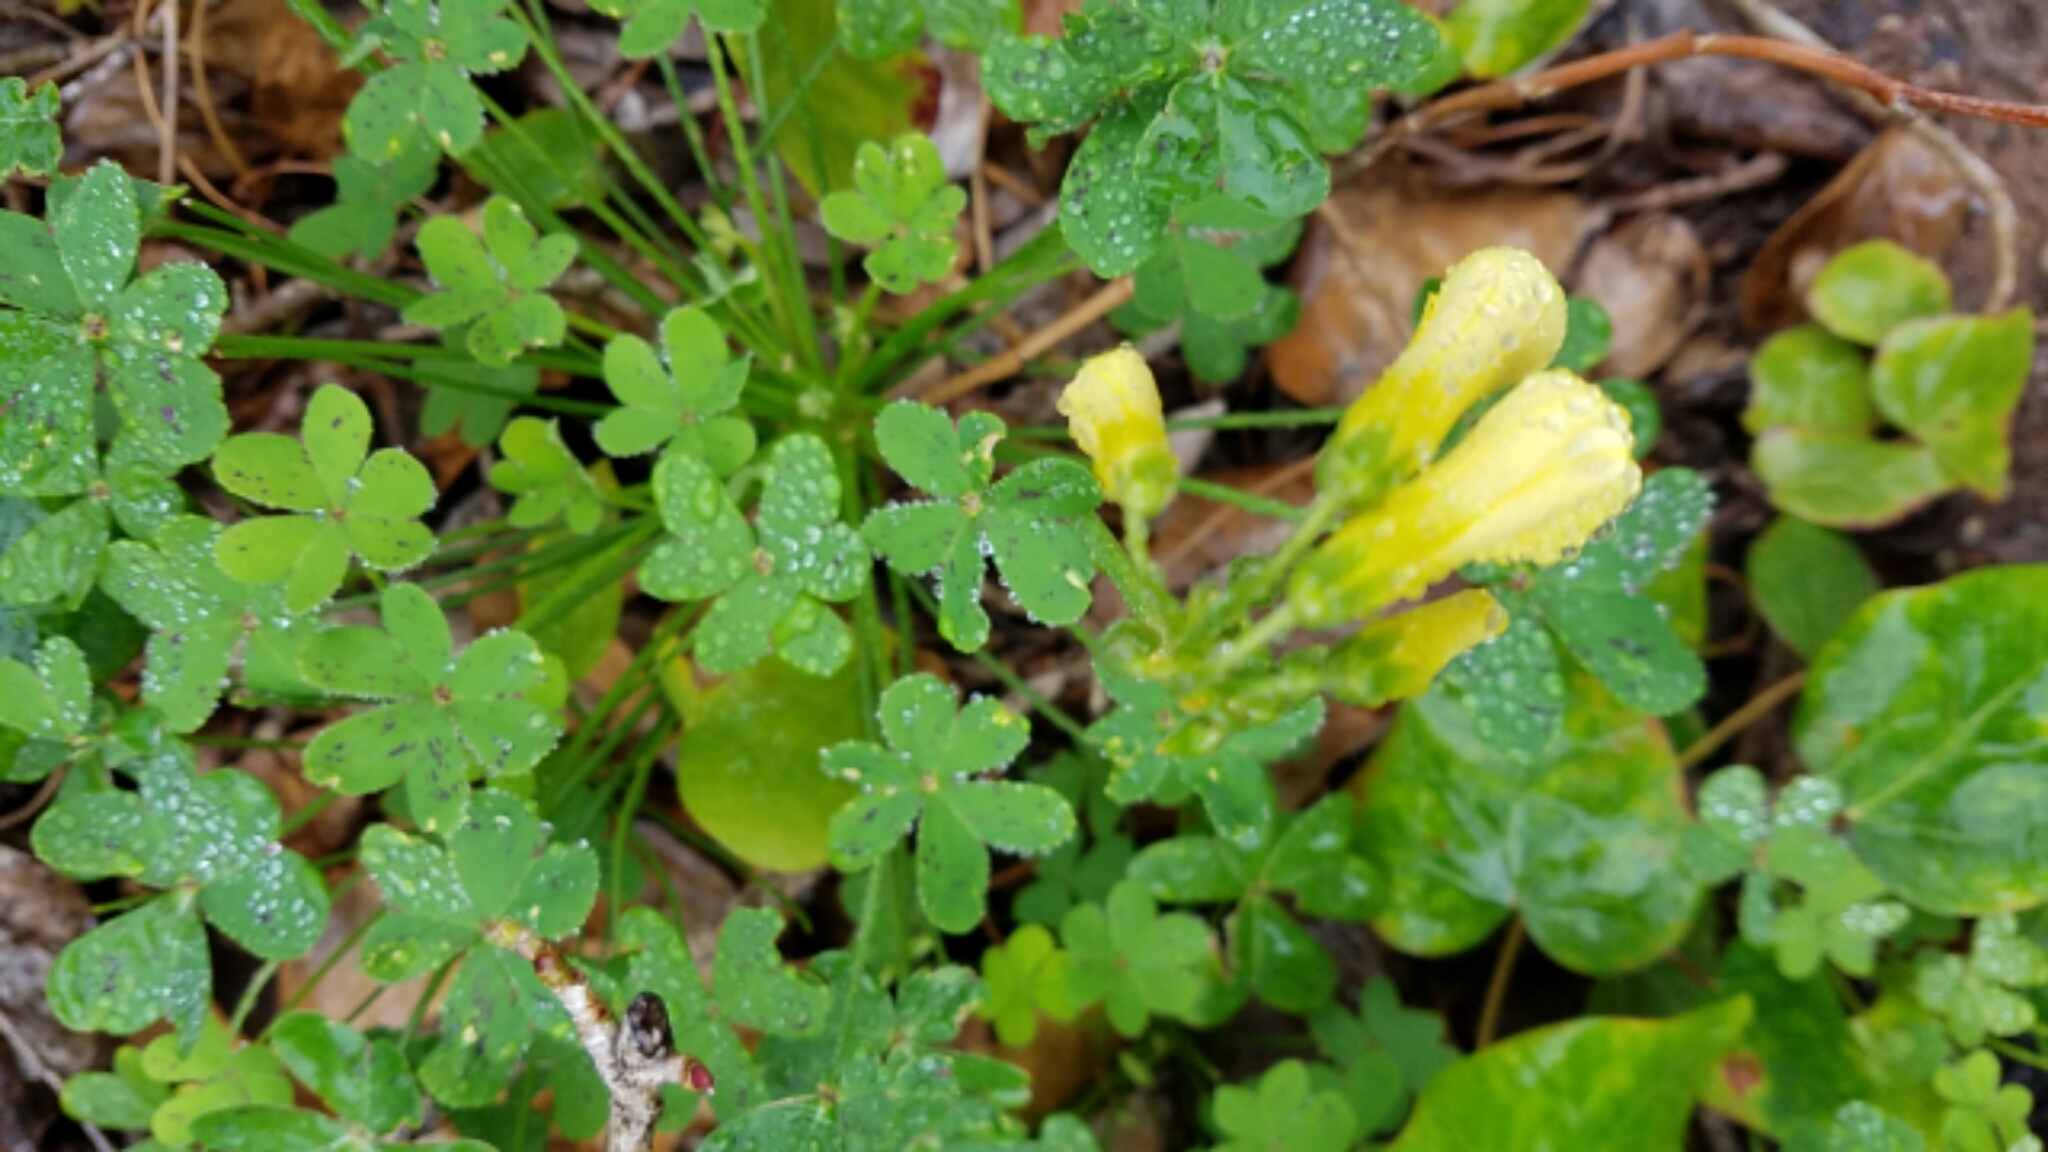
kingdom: Plantae
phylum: Tracheophyta
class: Magnoliopsida
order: Oxalidales
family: Oxalidaceae
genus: Oxalis
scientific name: Oxalis pes-caprae
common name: Bermuda-buttercup
